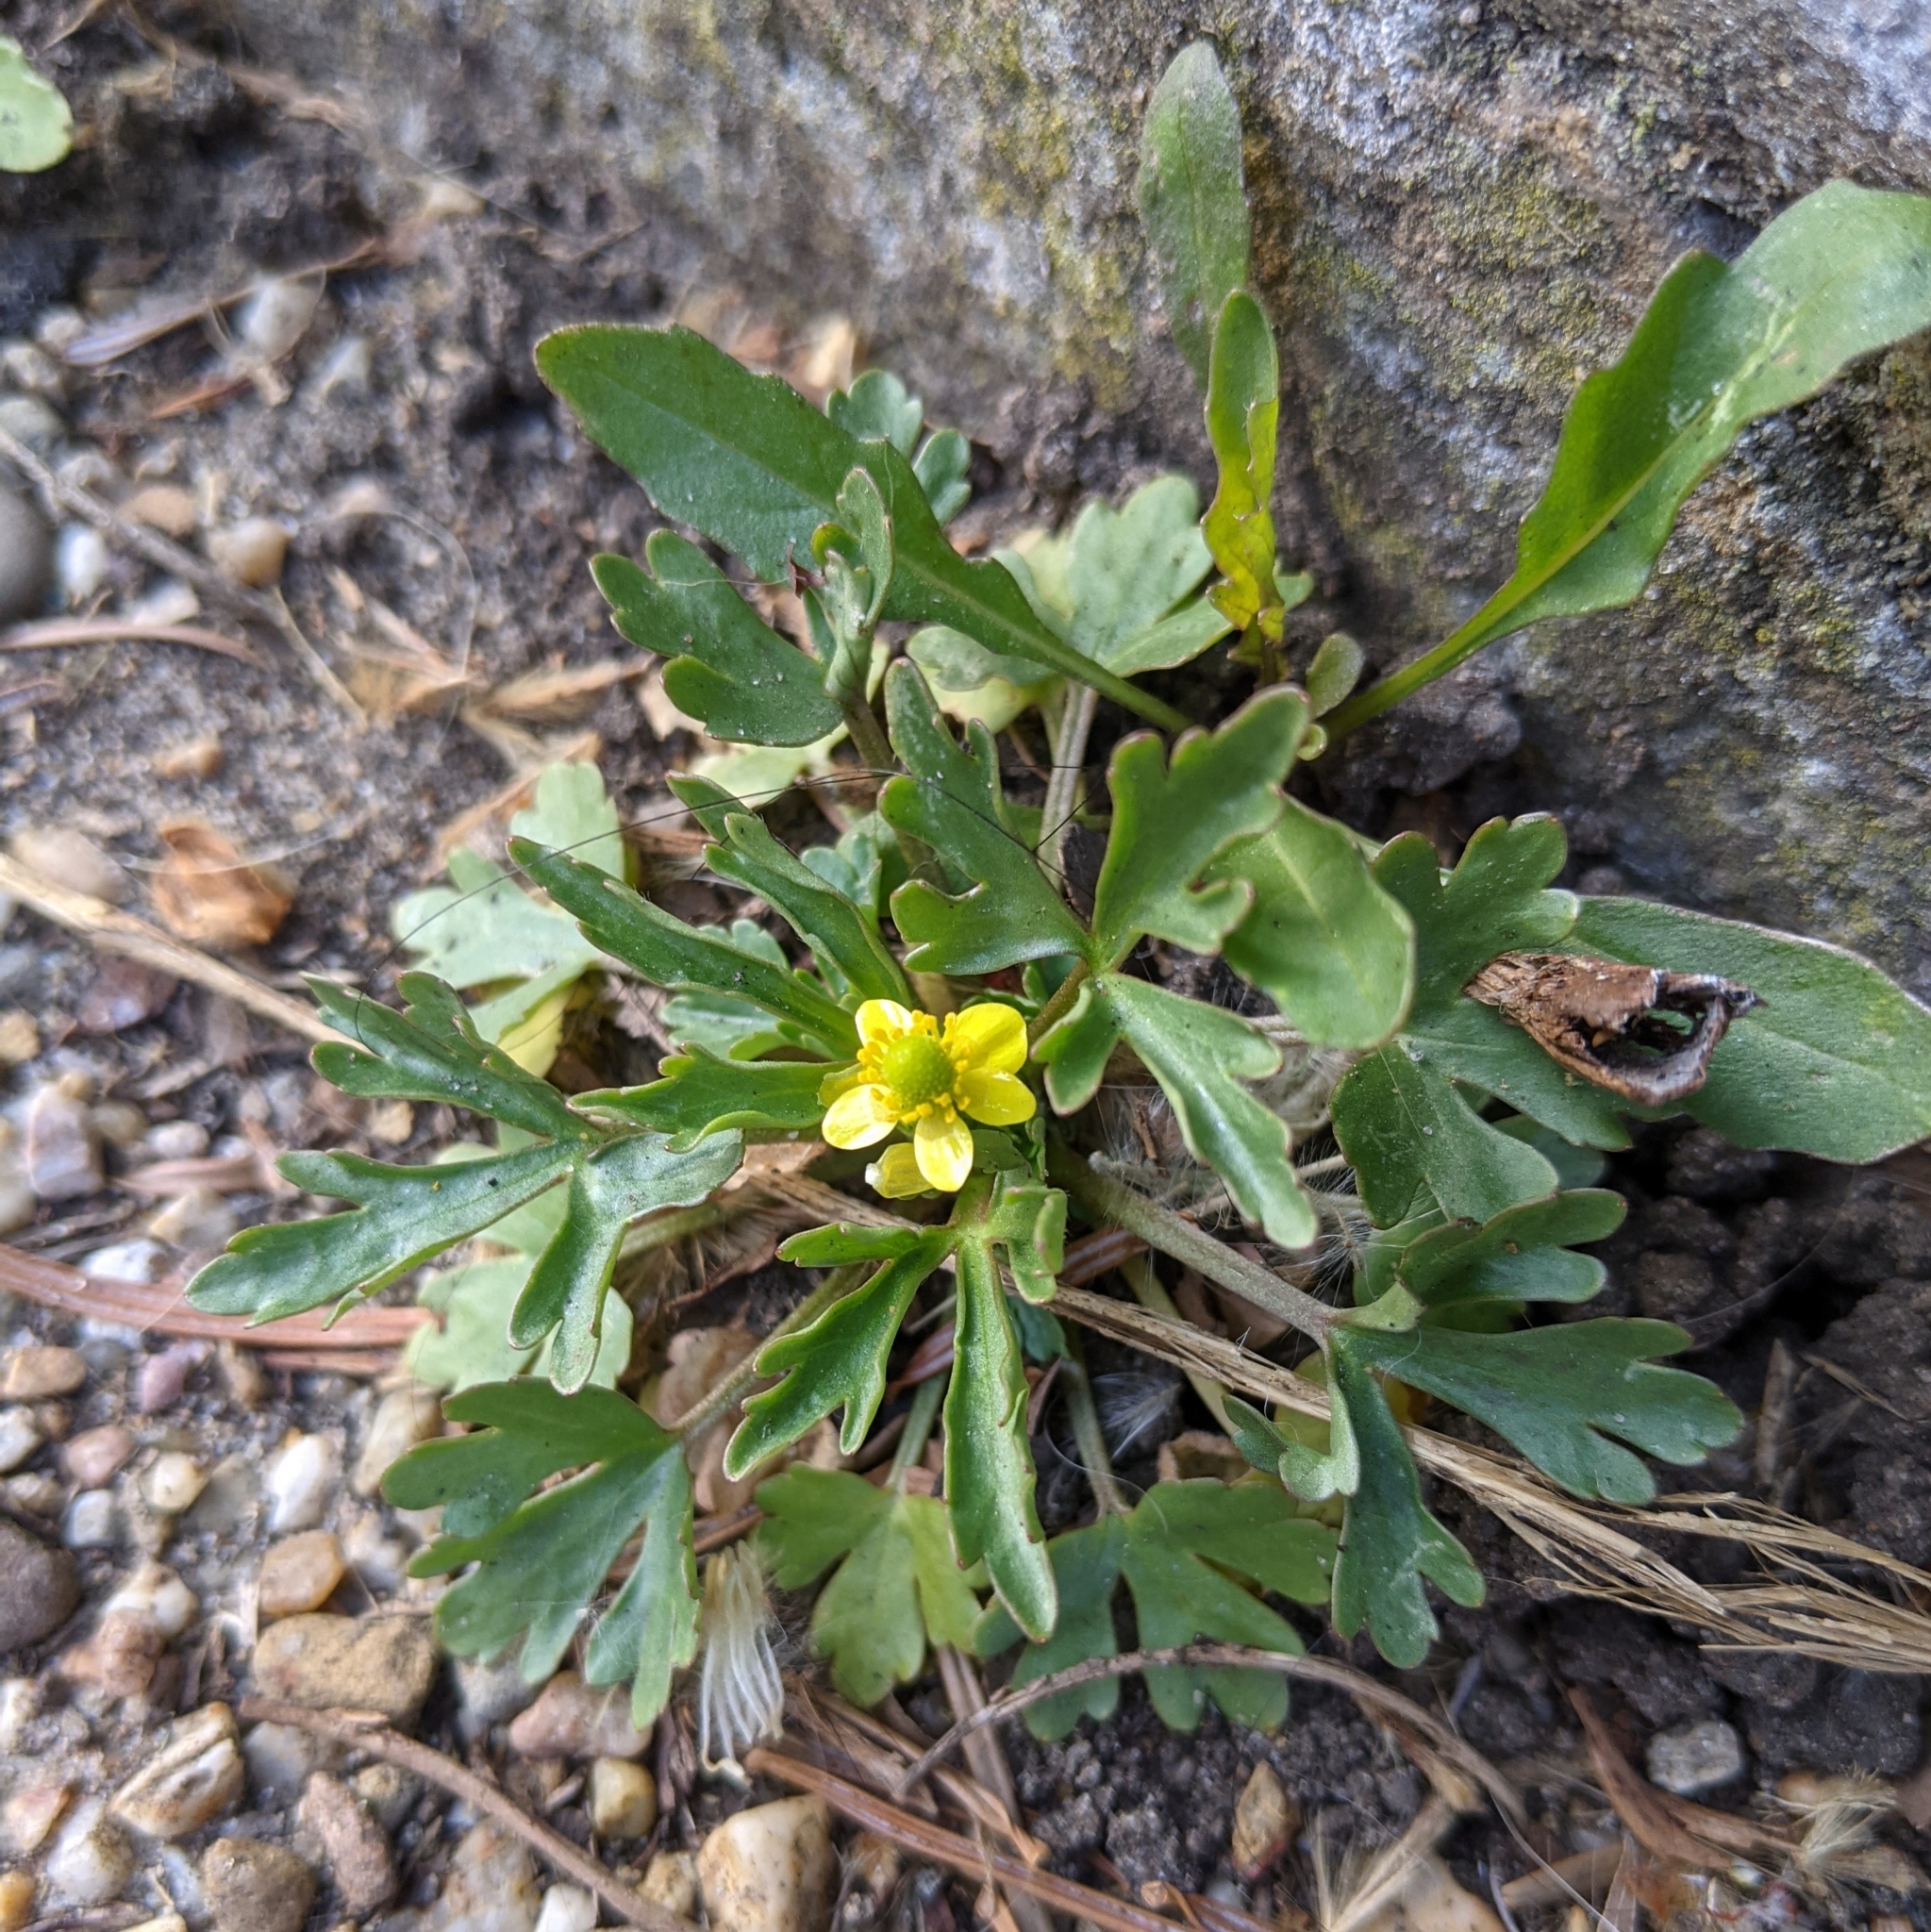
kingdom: Plantae
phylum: Tracheophyta
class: Magnoliopsida
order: Ranunculales
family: Ranunculaceae
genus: Ranunculus
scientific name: Ranunculus sceleratus
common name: Celery-leaved buttercup
